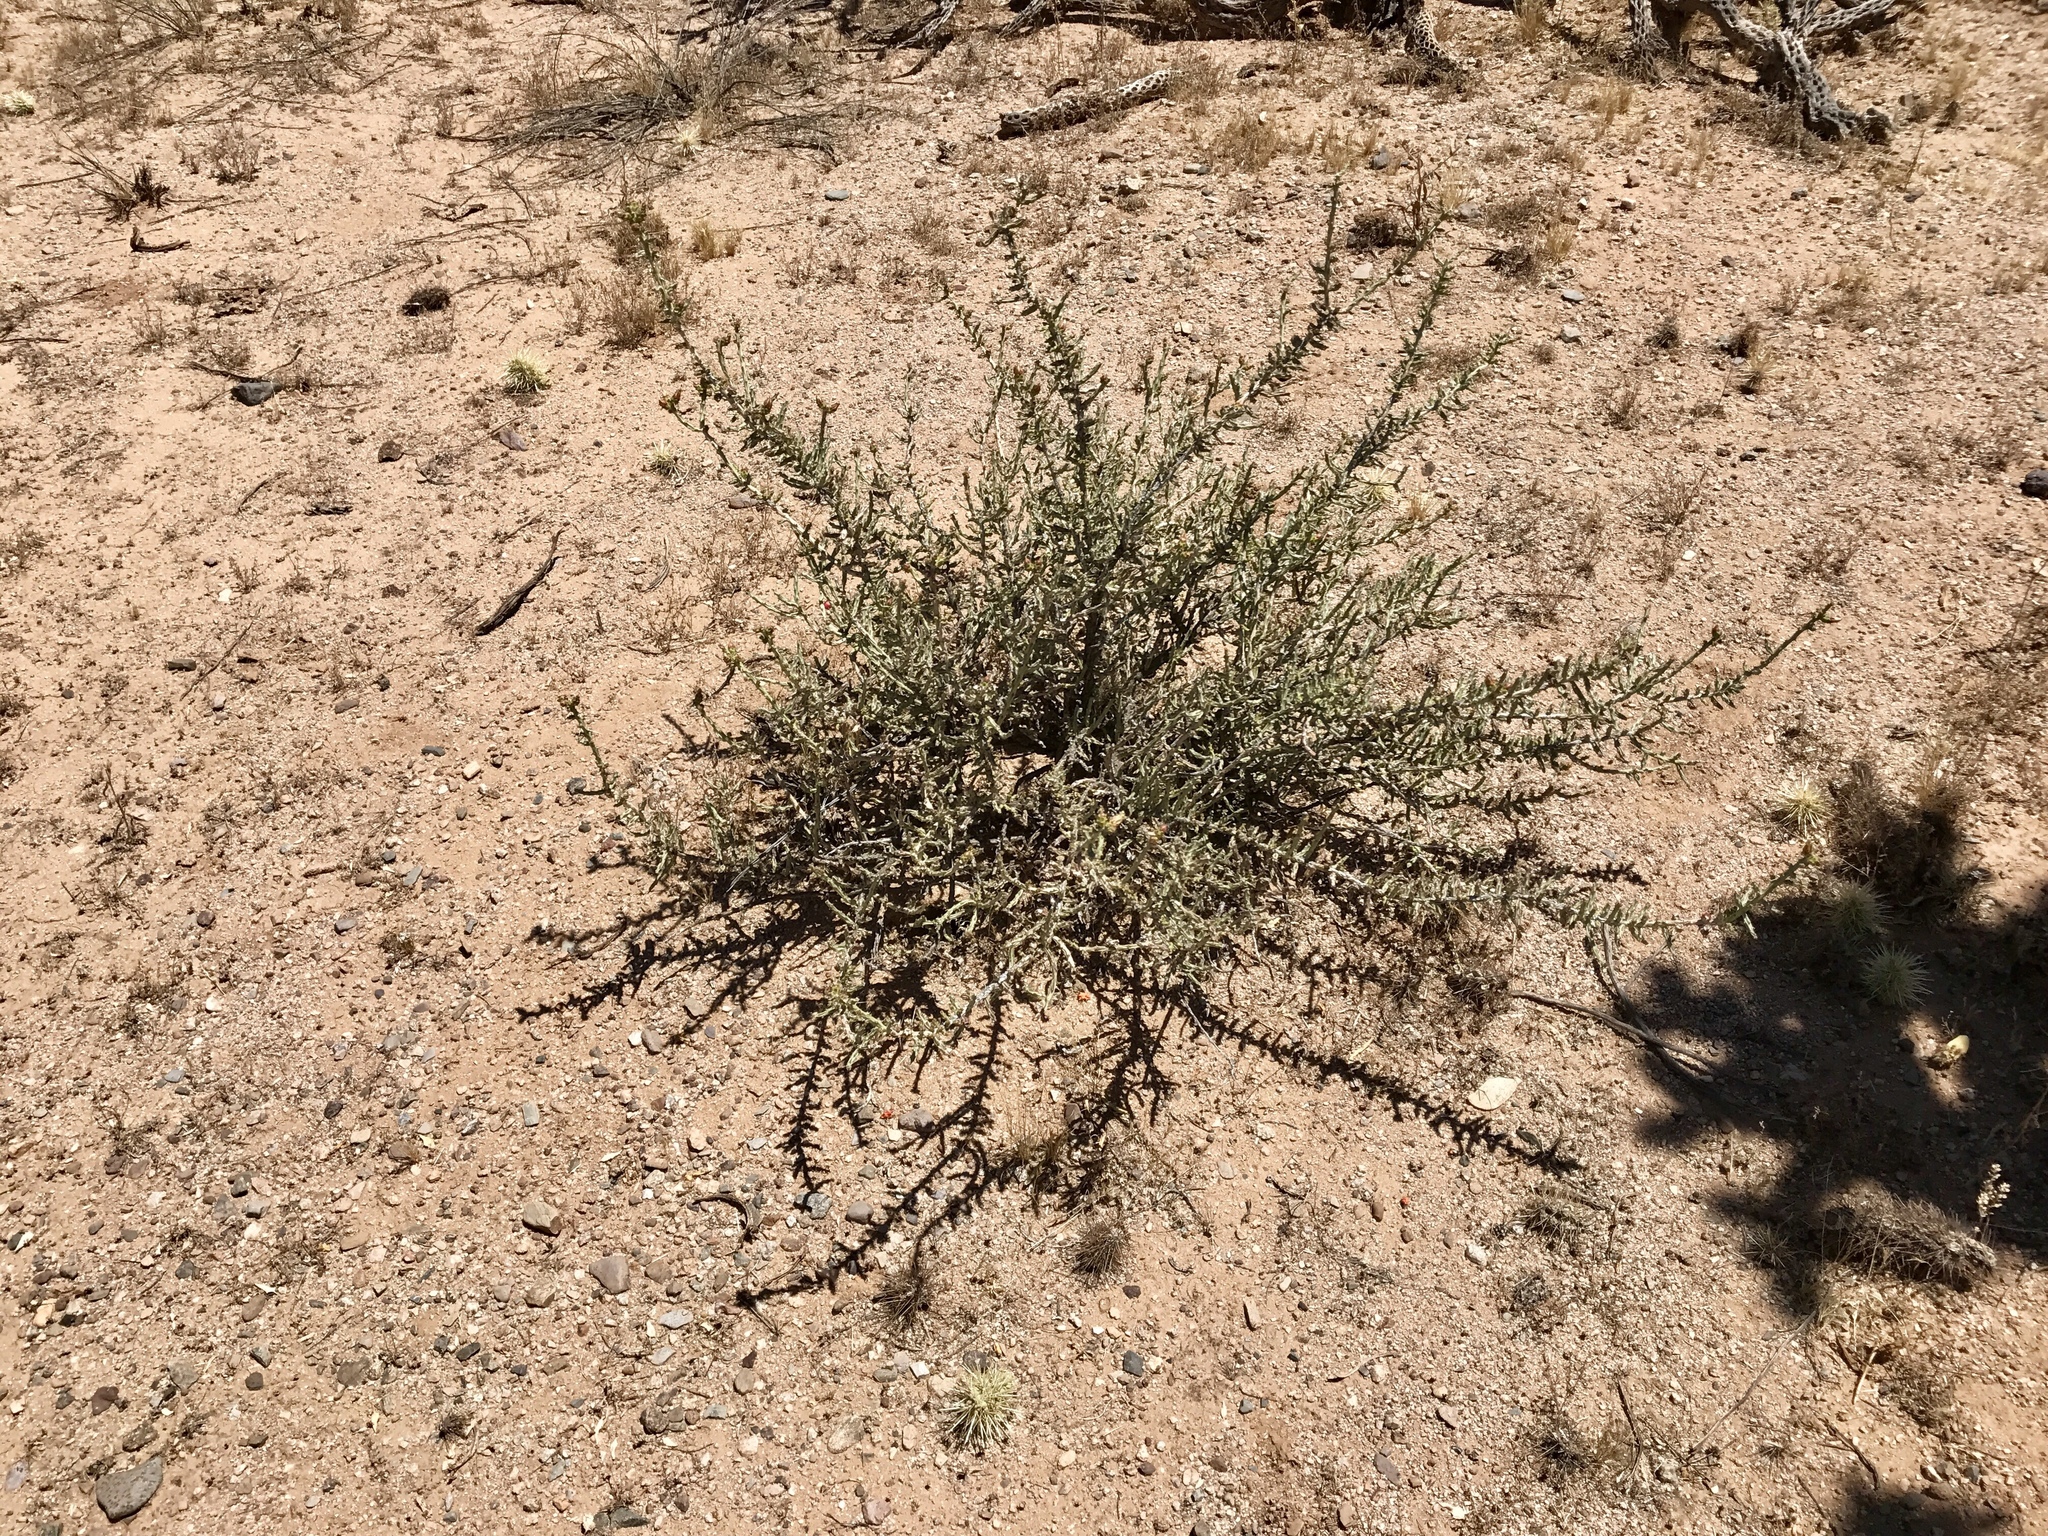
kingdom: Plantae
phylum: Tracheophyta
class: Magnoliopsida
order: Caryophyllales
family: Cactaceae
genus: Cylindropuntia
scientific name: Cylindropuntia leptocaulis
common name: Christmas cactus
